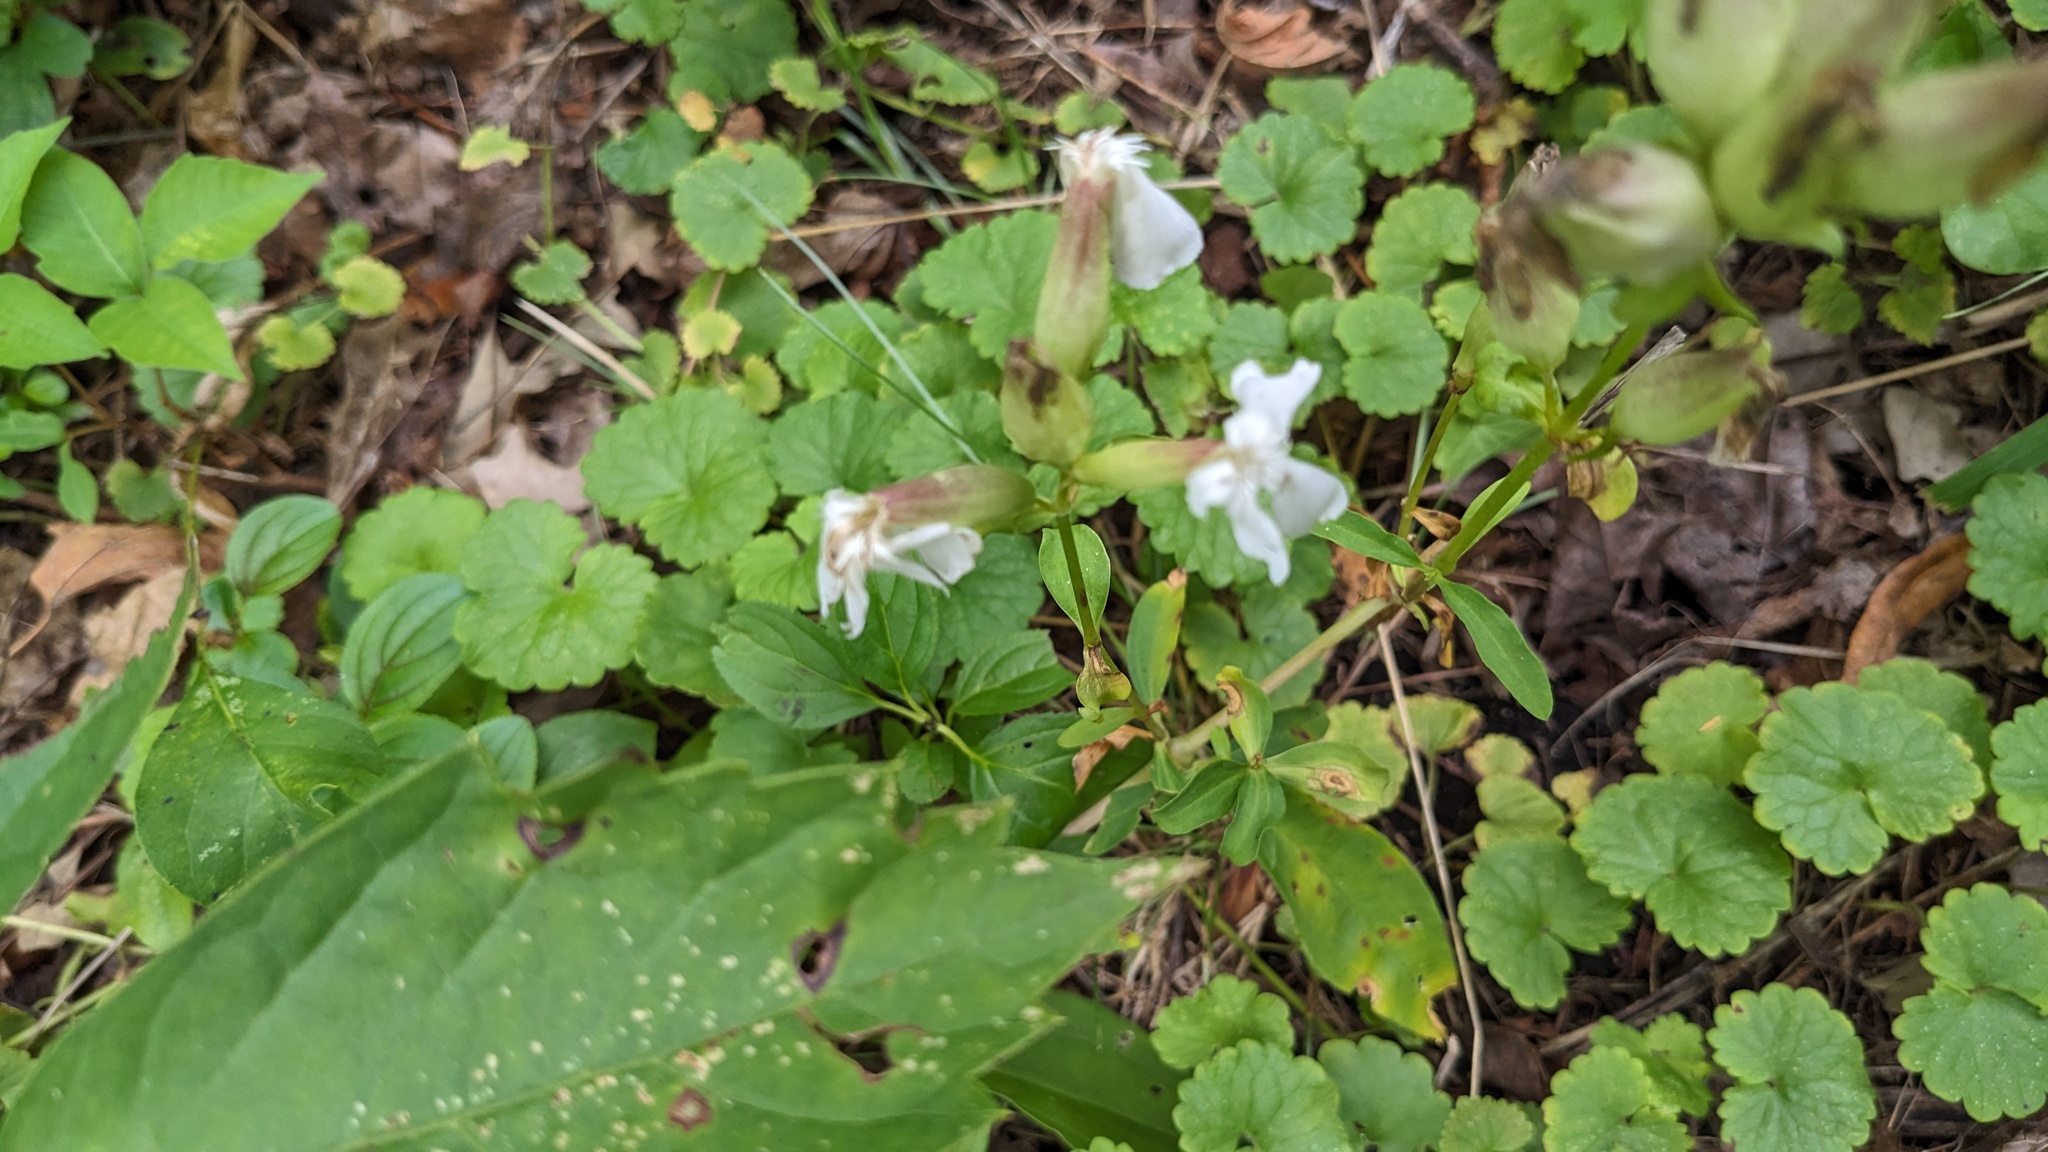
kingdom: Plantae
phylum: Tracheophyta
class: Magnoliopsida
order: Caryophyllales
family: Caryophyllaceae
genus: Saponaria
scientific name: Saponaria officinalis
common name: Soapwort
